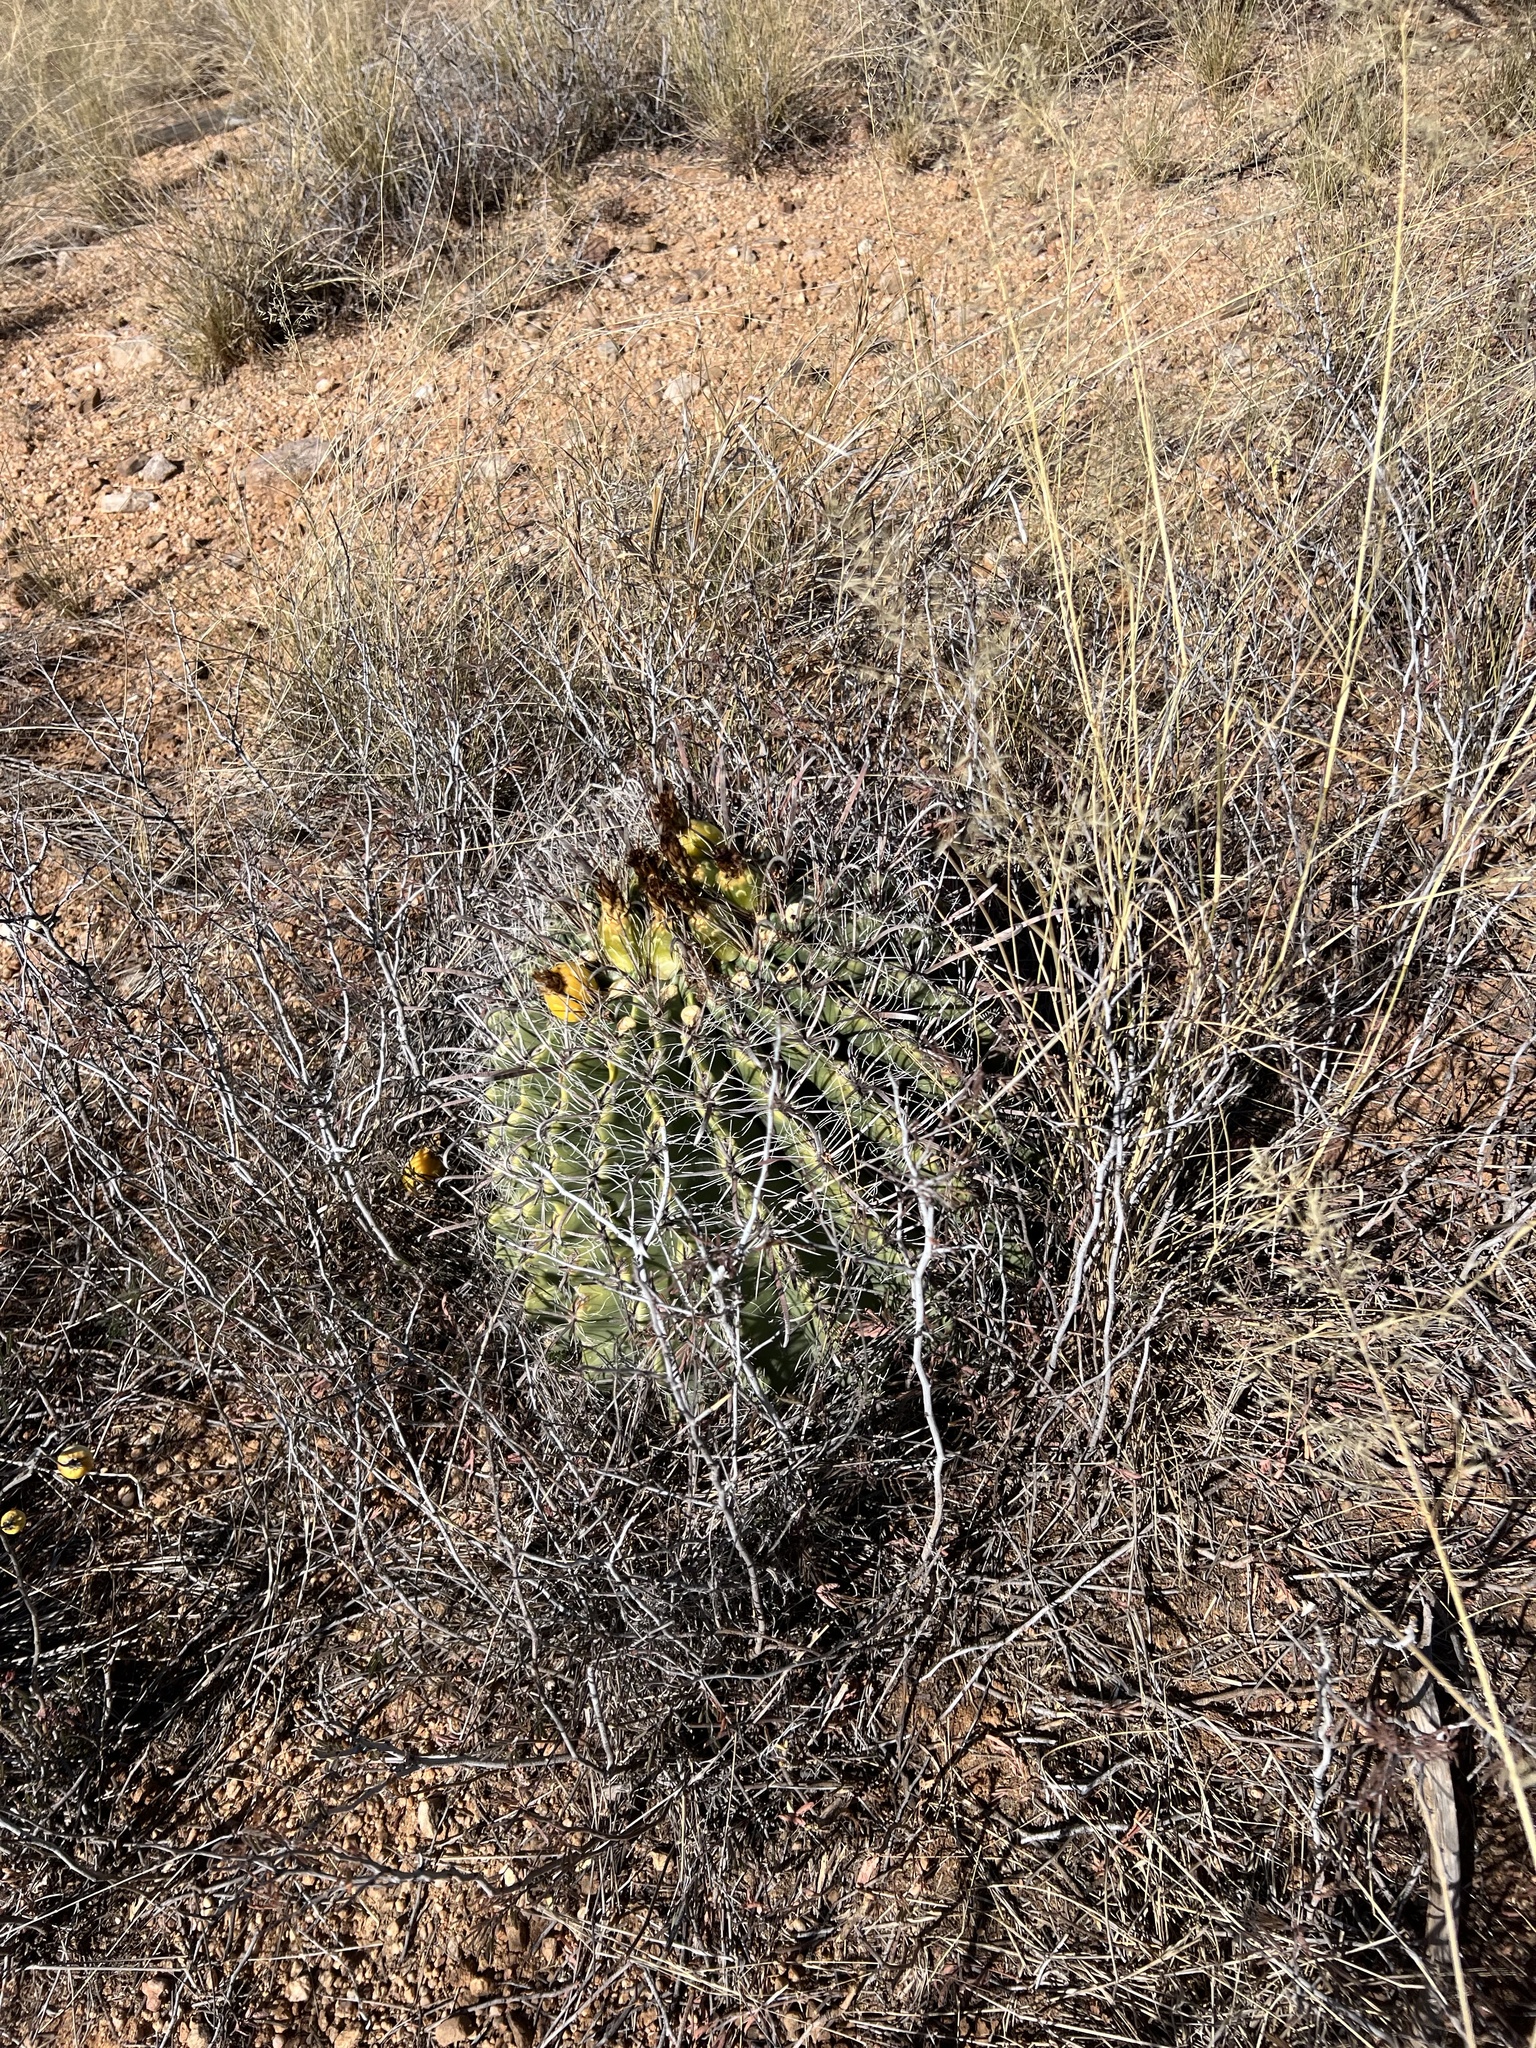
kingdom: Plantae
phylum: Tracheophyta
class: Magnoliopsida
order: Caryophyllales
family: Cactaceae
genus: Ferocactus
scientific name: Ferocactus wislizeni
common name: Candy barrel cactus
